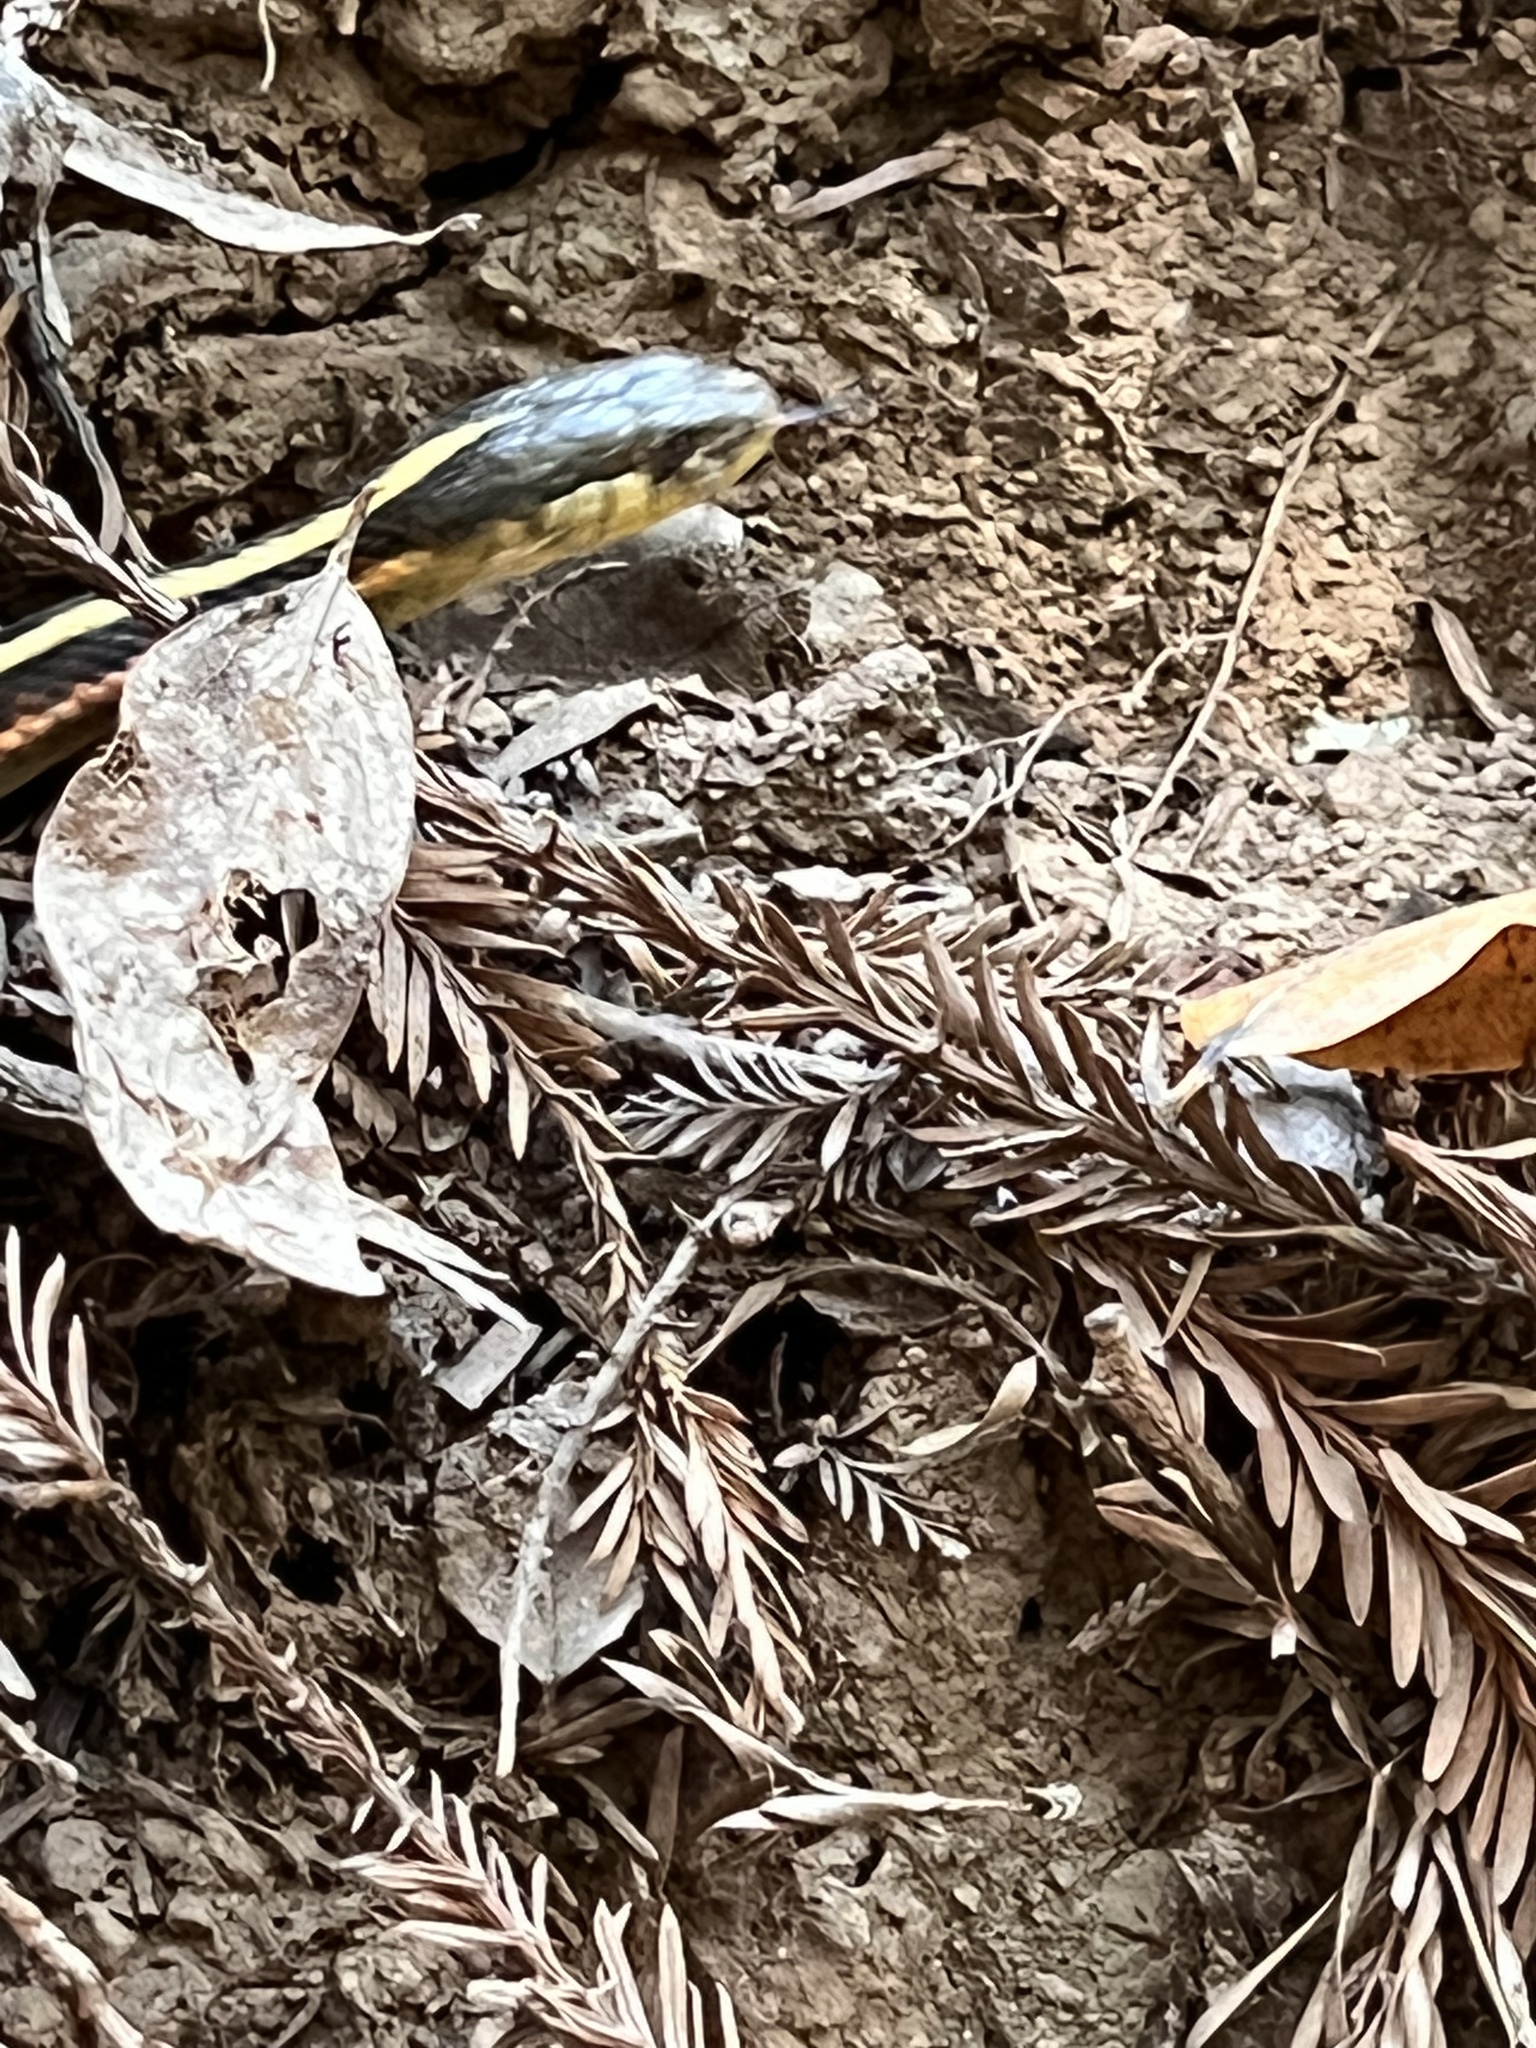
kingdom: Animalia
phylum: Chordata
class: Squamata
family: Colubridae
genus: Thamnophis
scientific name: Thamnophis elegans
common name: Western terrestrial garter snake
